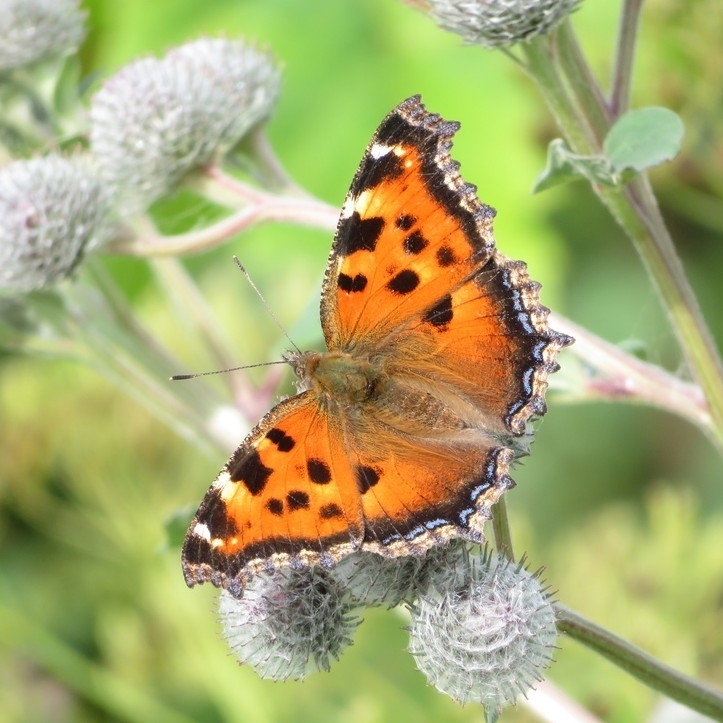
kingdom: Animalia
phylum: Arthropoda
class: Insecta
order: Lepidoptera
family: Nymphalidae
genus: Nymphalis
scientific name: Nymphalis xanthomelas
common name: Scarce tortoiseshell
